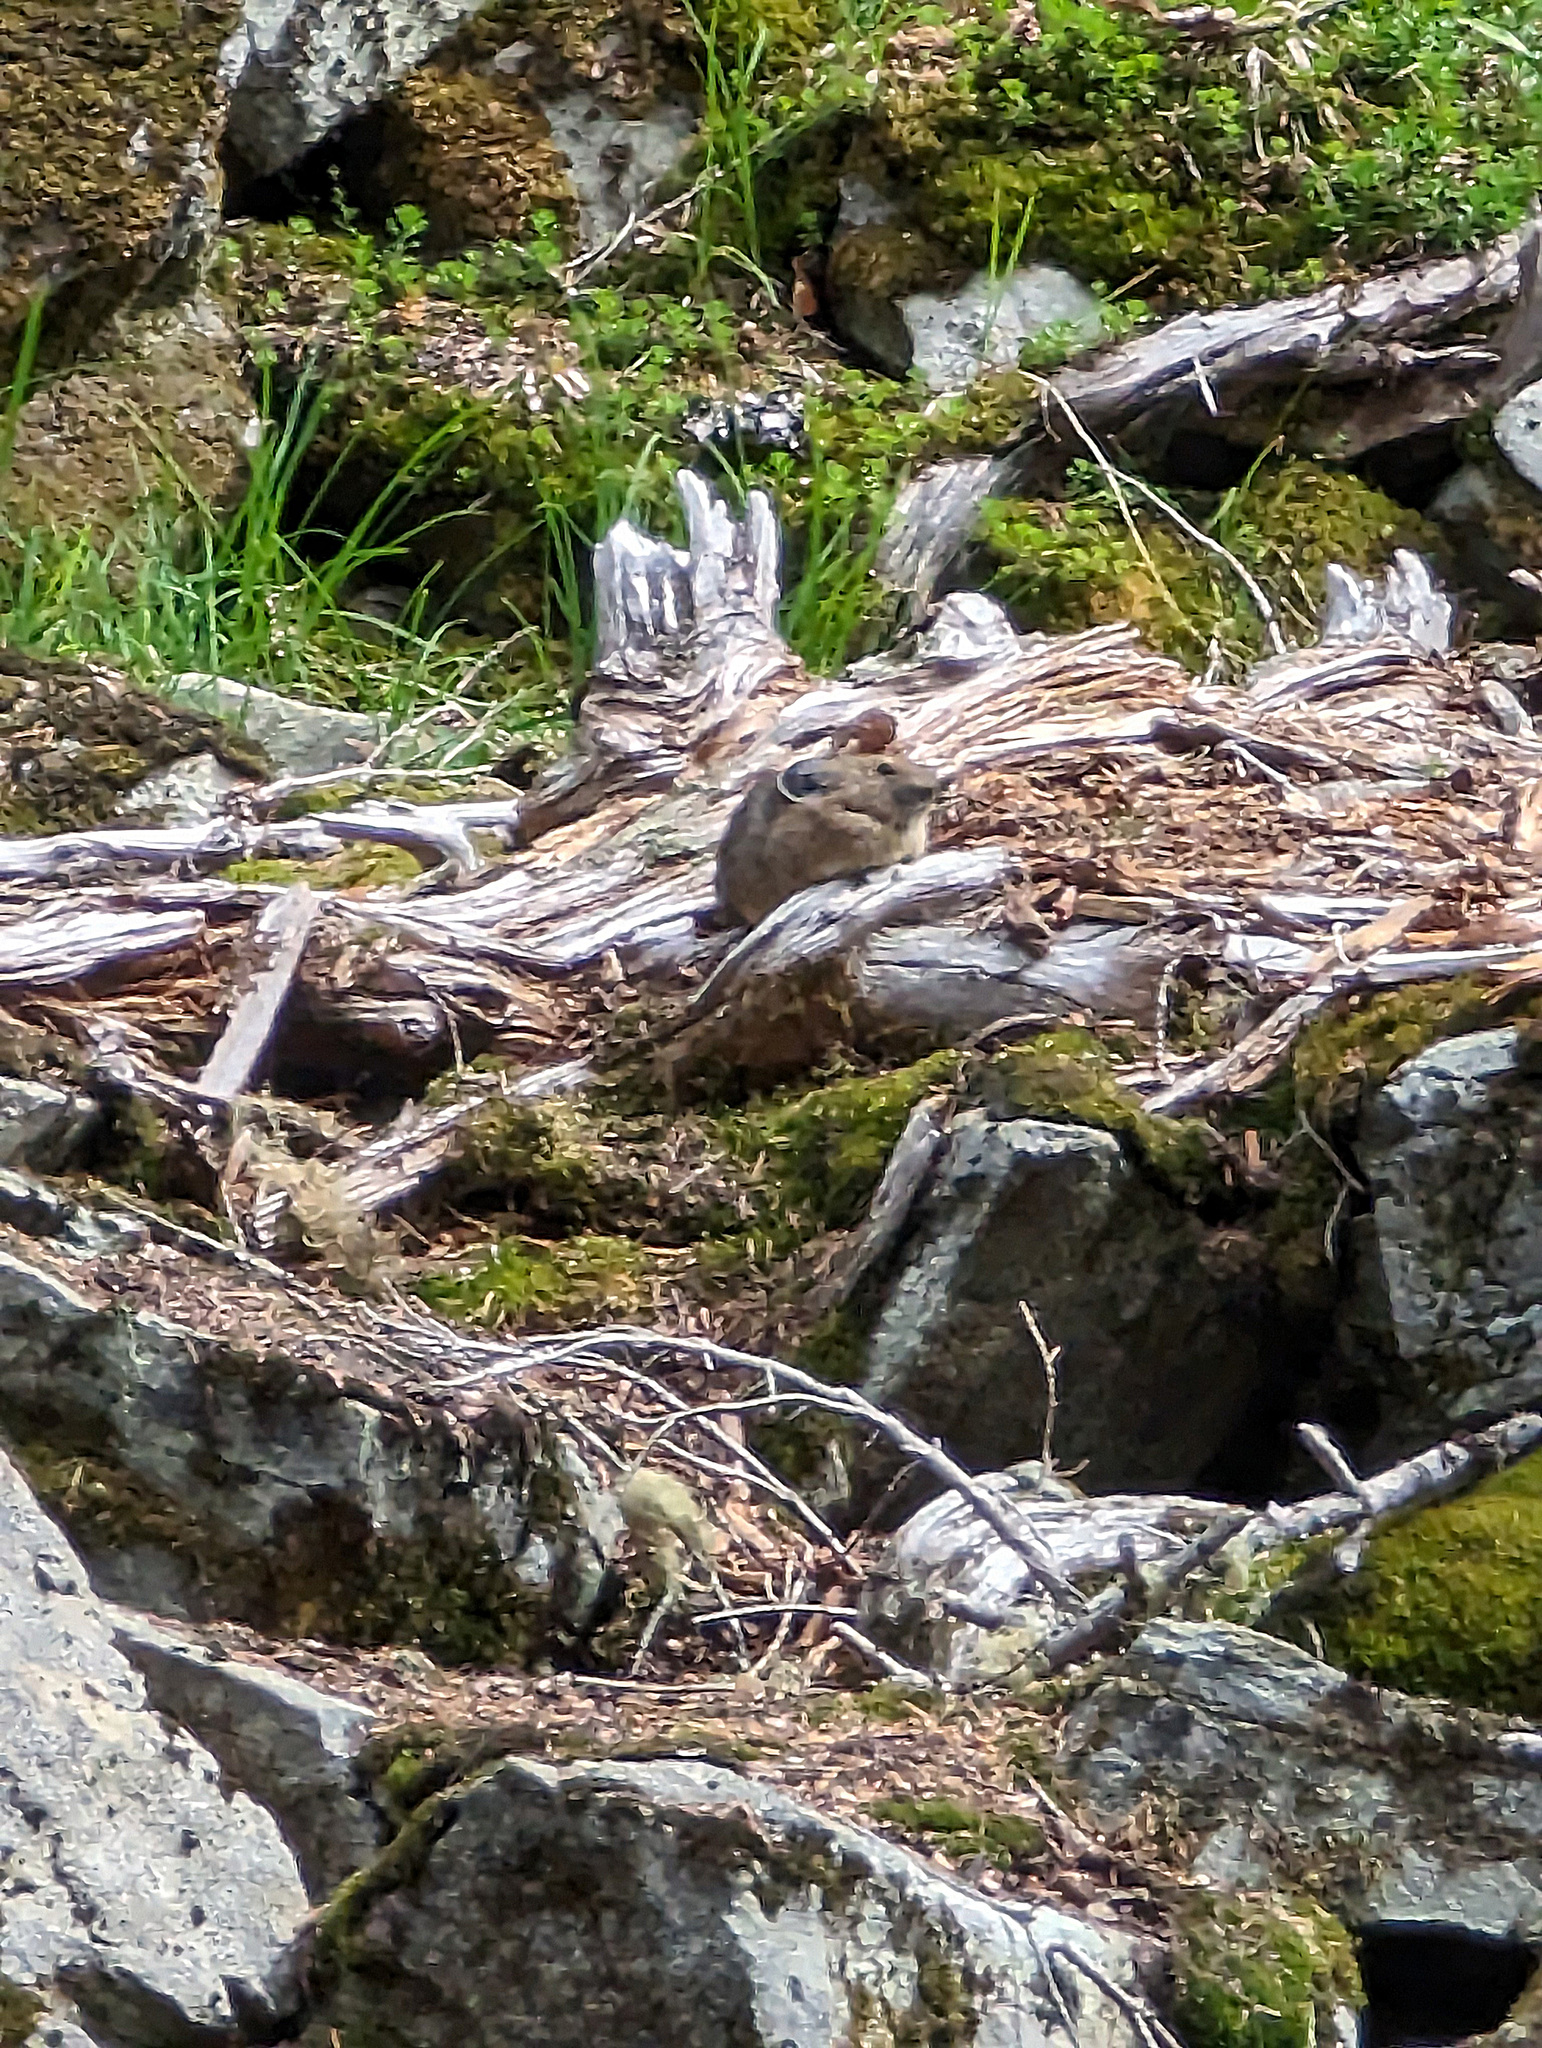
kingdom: Animalia
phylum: Chordata
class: Mammalia
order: Lagomorpha
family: Ochotonidae
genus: Ochotona
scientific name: Ochotona princeps
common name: American pika
